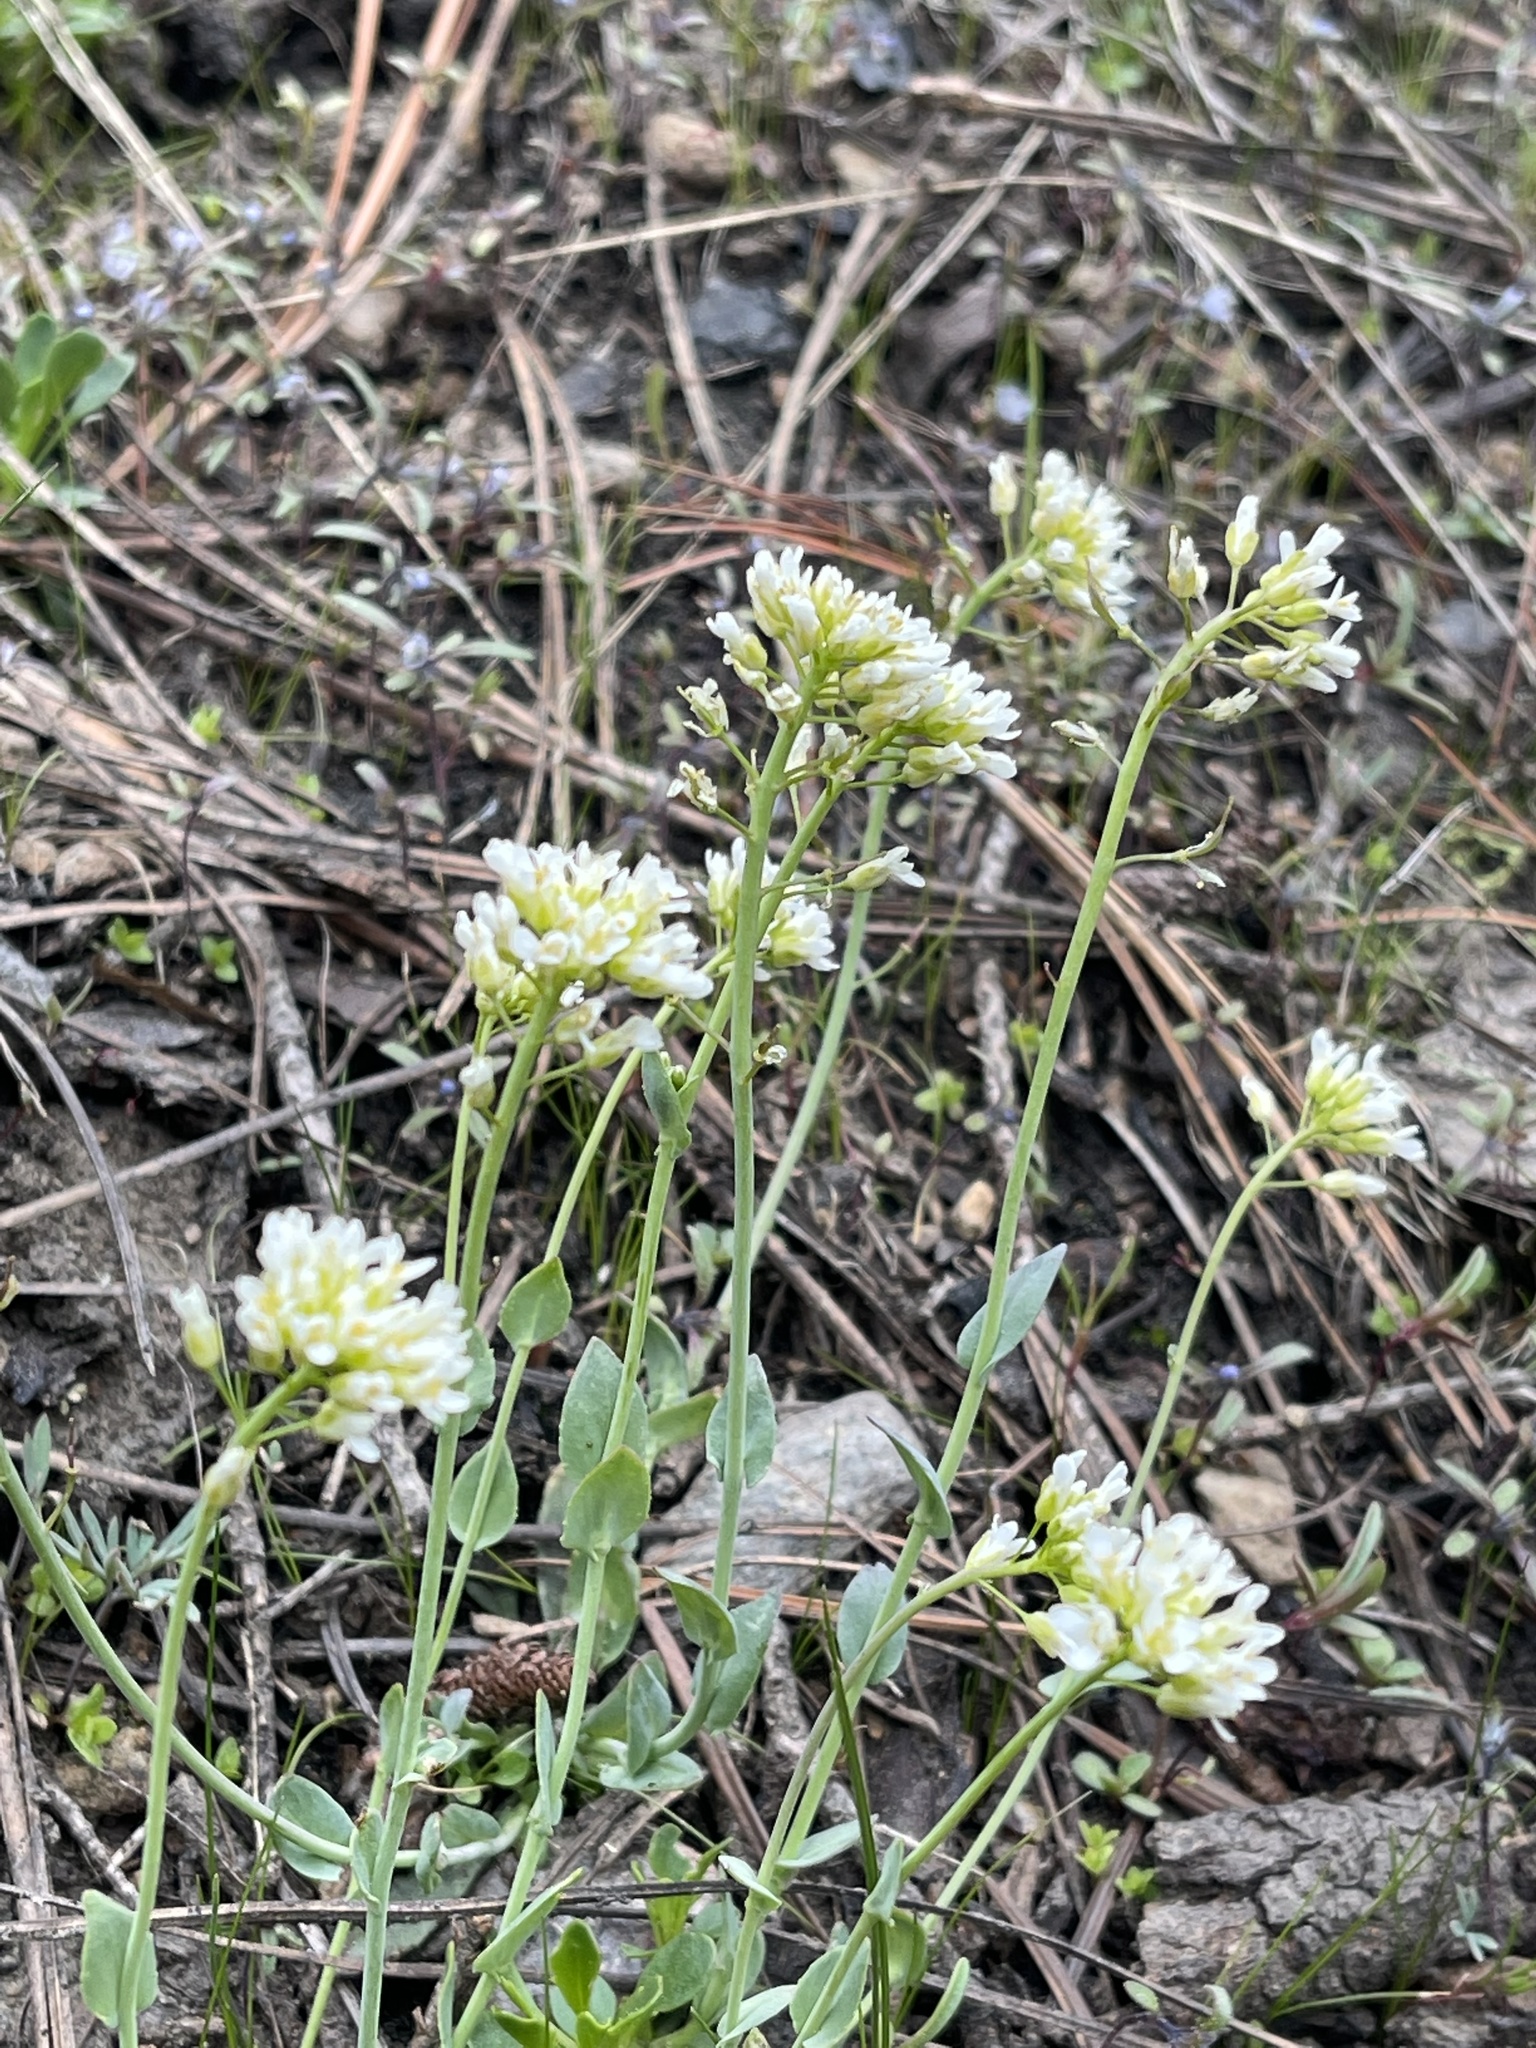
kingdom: Plantae
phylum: Tracheophyta
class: Magnoliopsida
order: Brassicales
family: Brassicaceae
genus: Noccaea
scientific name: Noccaea fendleri
